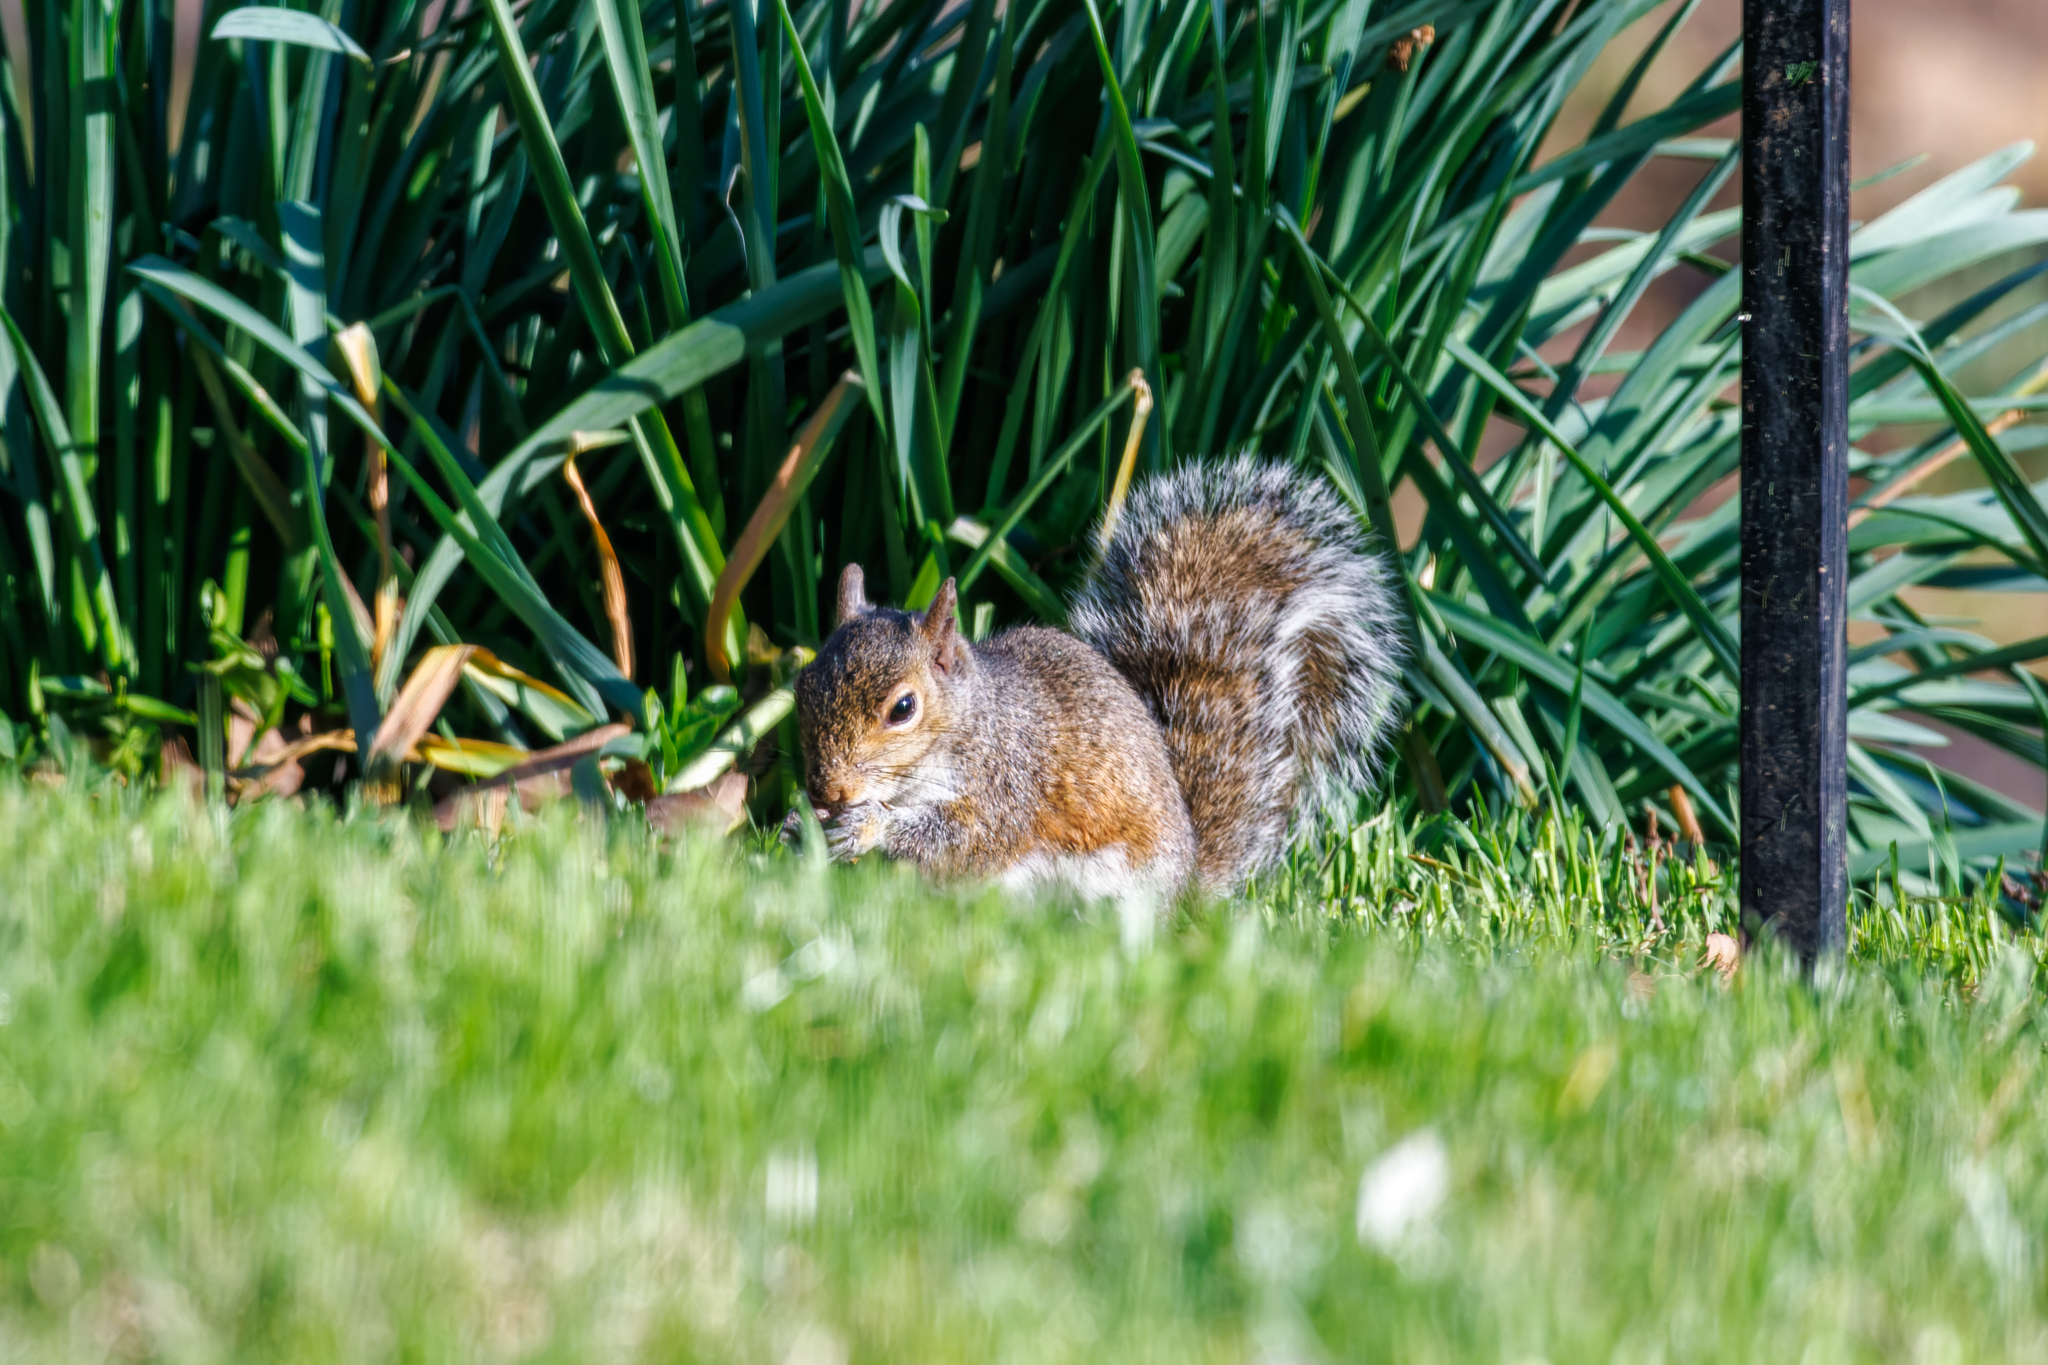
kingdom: Animalia
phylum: Chordata
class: Mammalia
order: Rodentia
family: Sciuridae
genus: Sciurus
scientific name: Sciurus carolinensis
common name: Eastern gray squirrel
